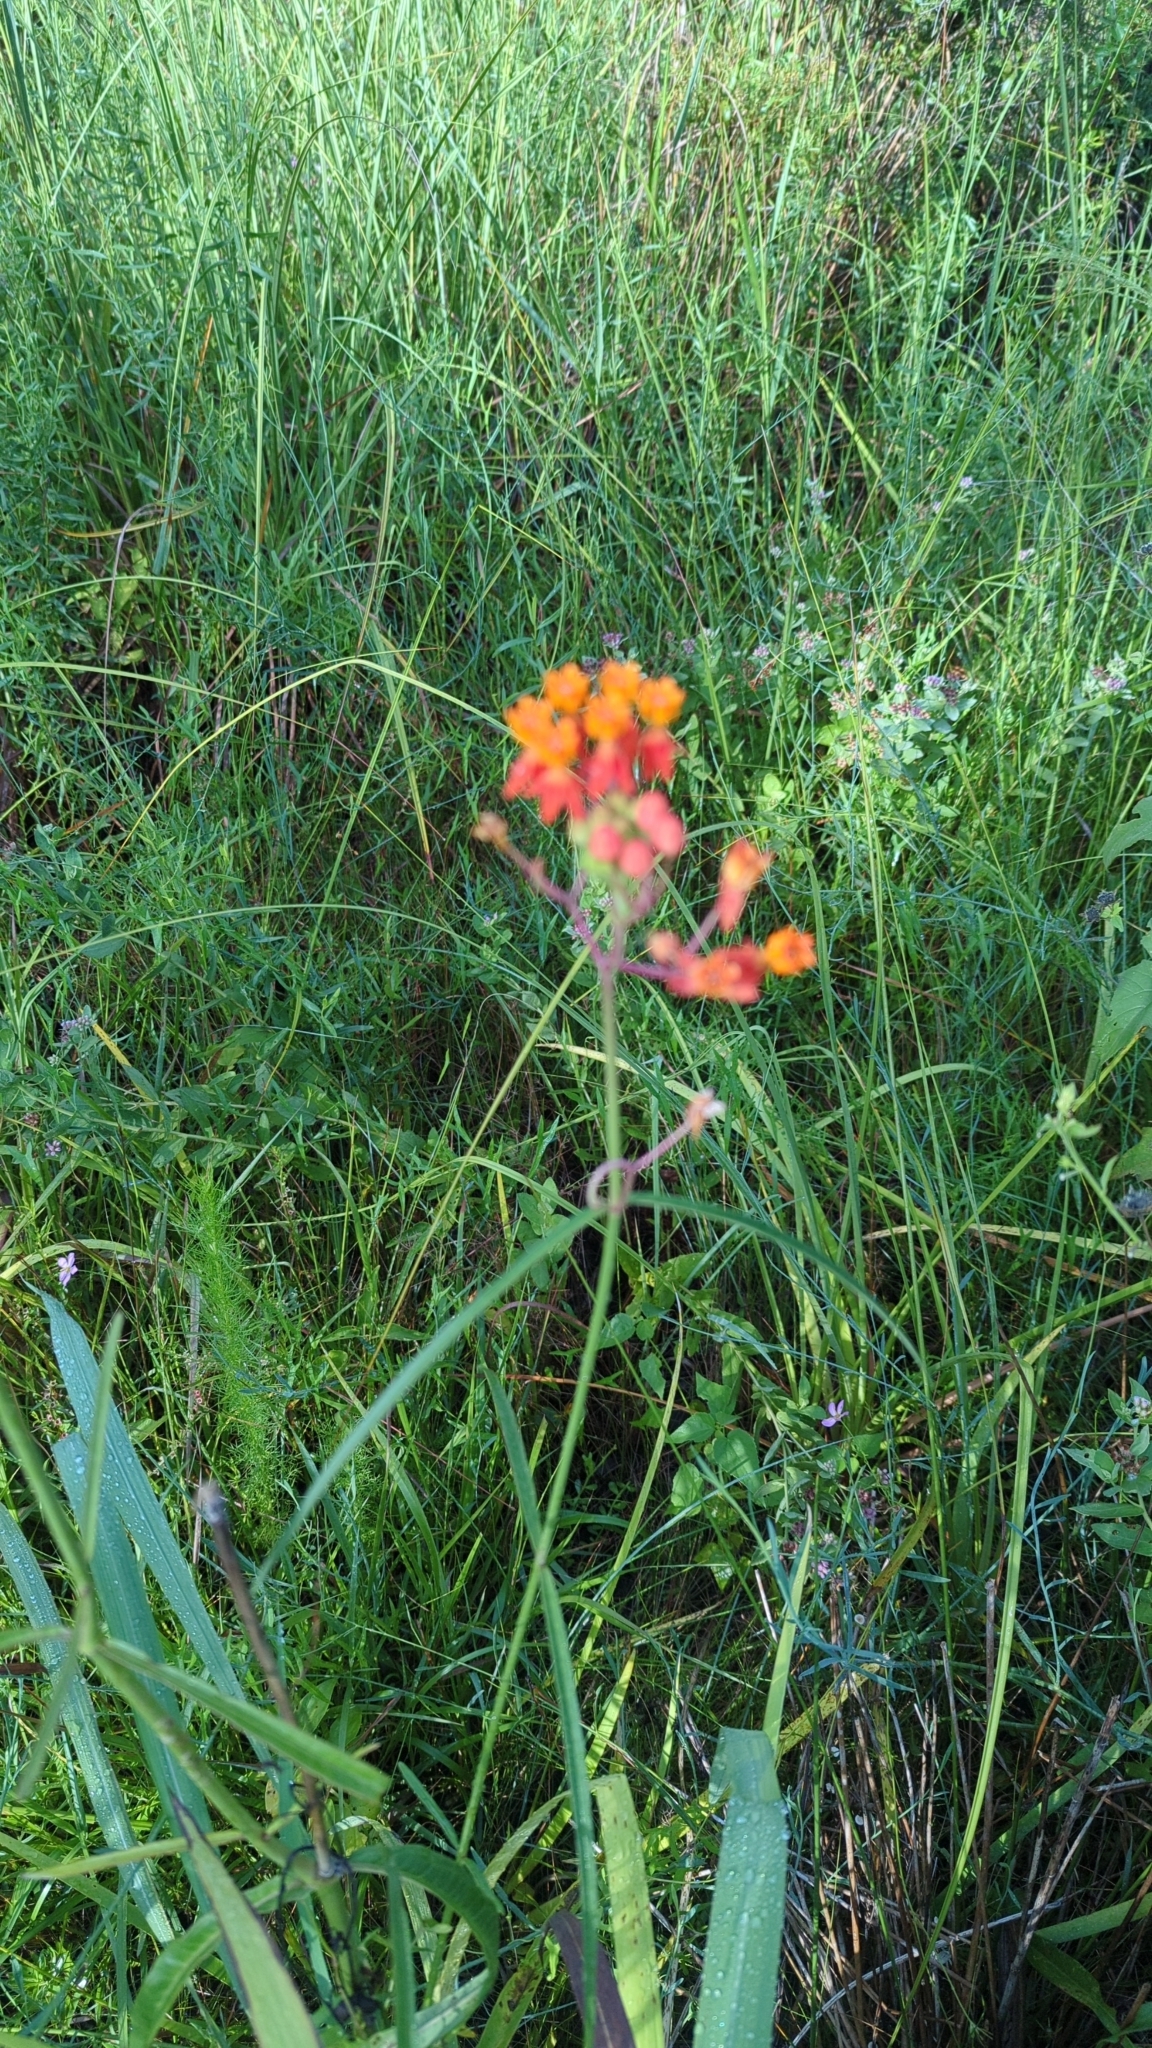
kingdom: Plantae
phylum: Tracheophyta
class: Magnoliopsida
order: Gentianales
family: Apocynaceae
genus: Asclepias
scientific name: Asclepias lanceolata
